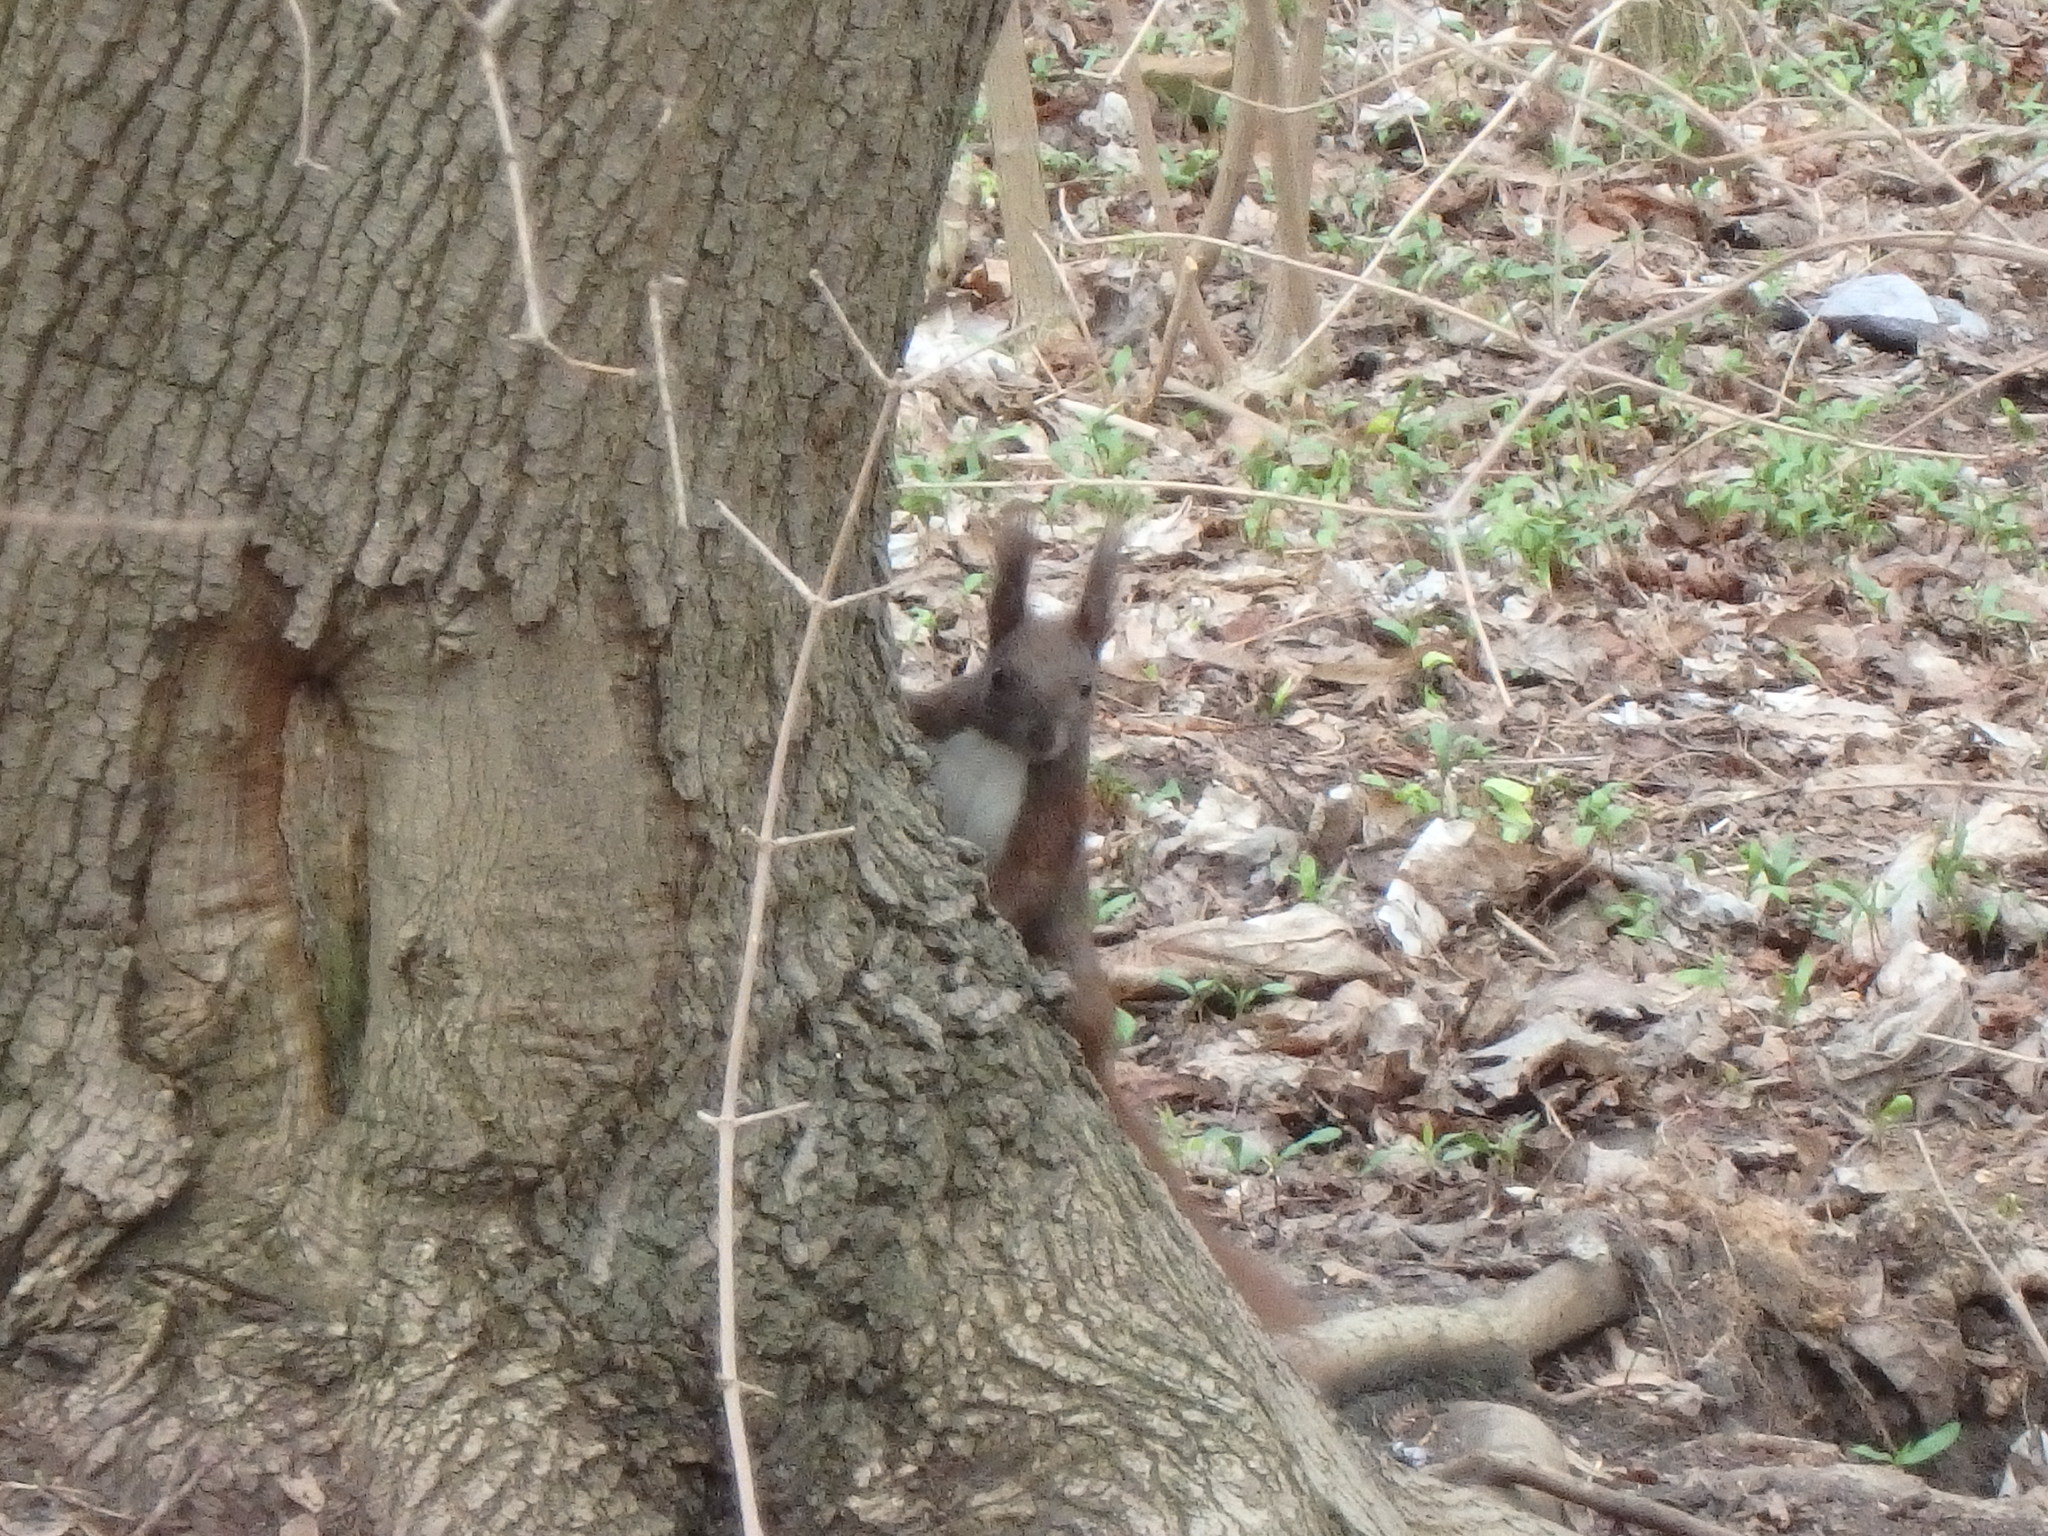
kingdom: Animalia
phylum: Chordata
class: Mammalia
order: Rodentia
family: Sciuridae
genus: Sciurus
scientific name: Sciurus vulgaris
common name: Eurasian red squirrel
